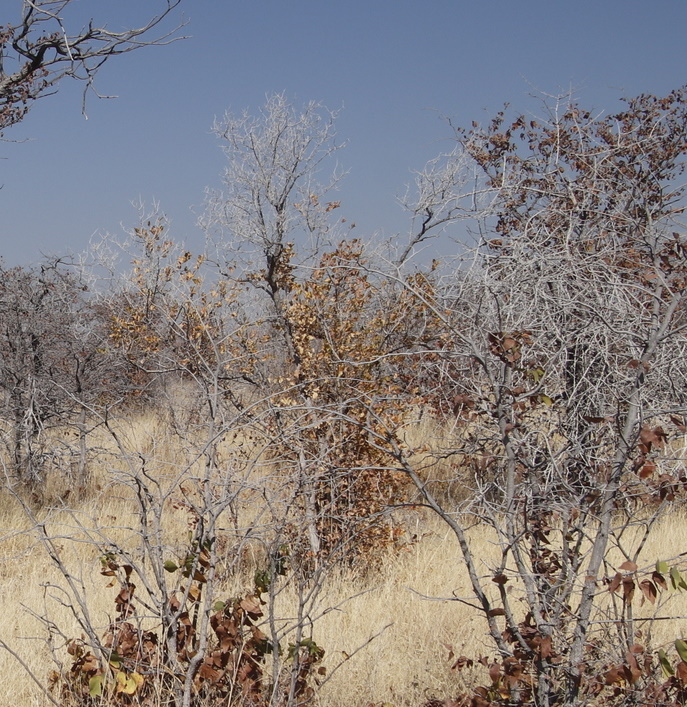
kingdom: Plantae
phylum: Tracheophyta
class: Magnoliopsida
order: Myrtales
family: Combretaceae
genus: Combretum
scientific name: Combretum apiculatum
